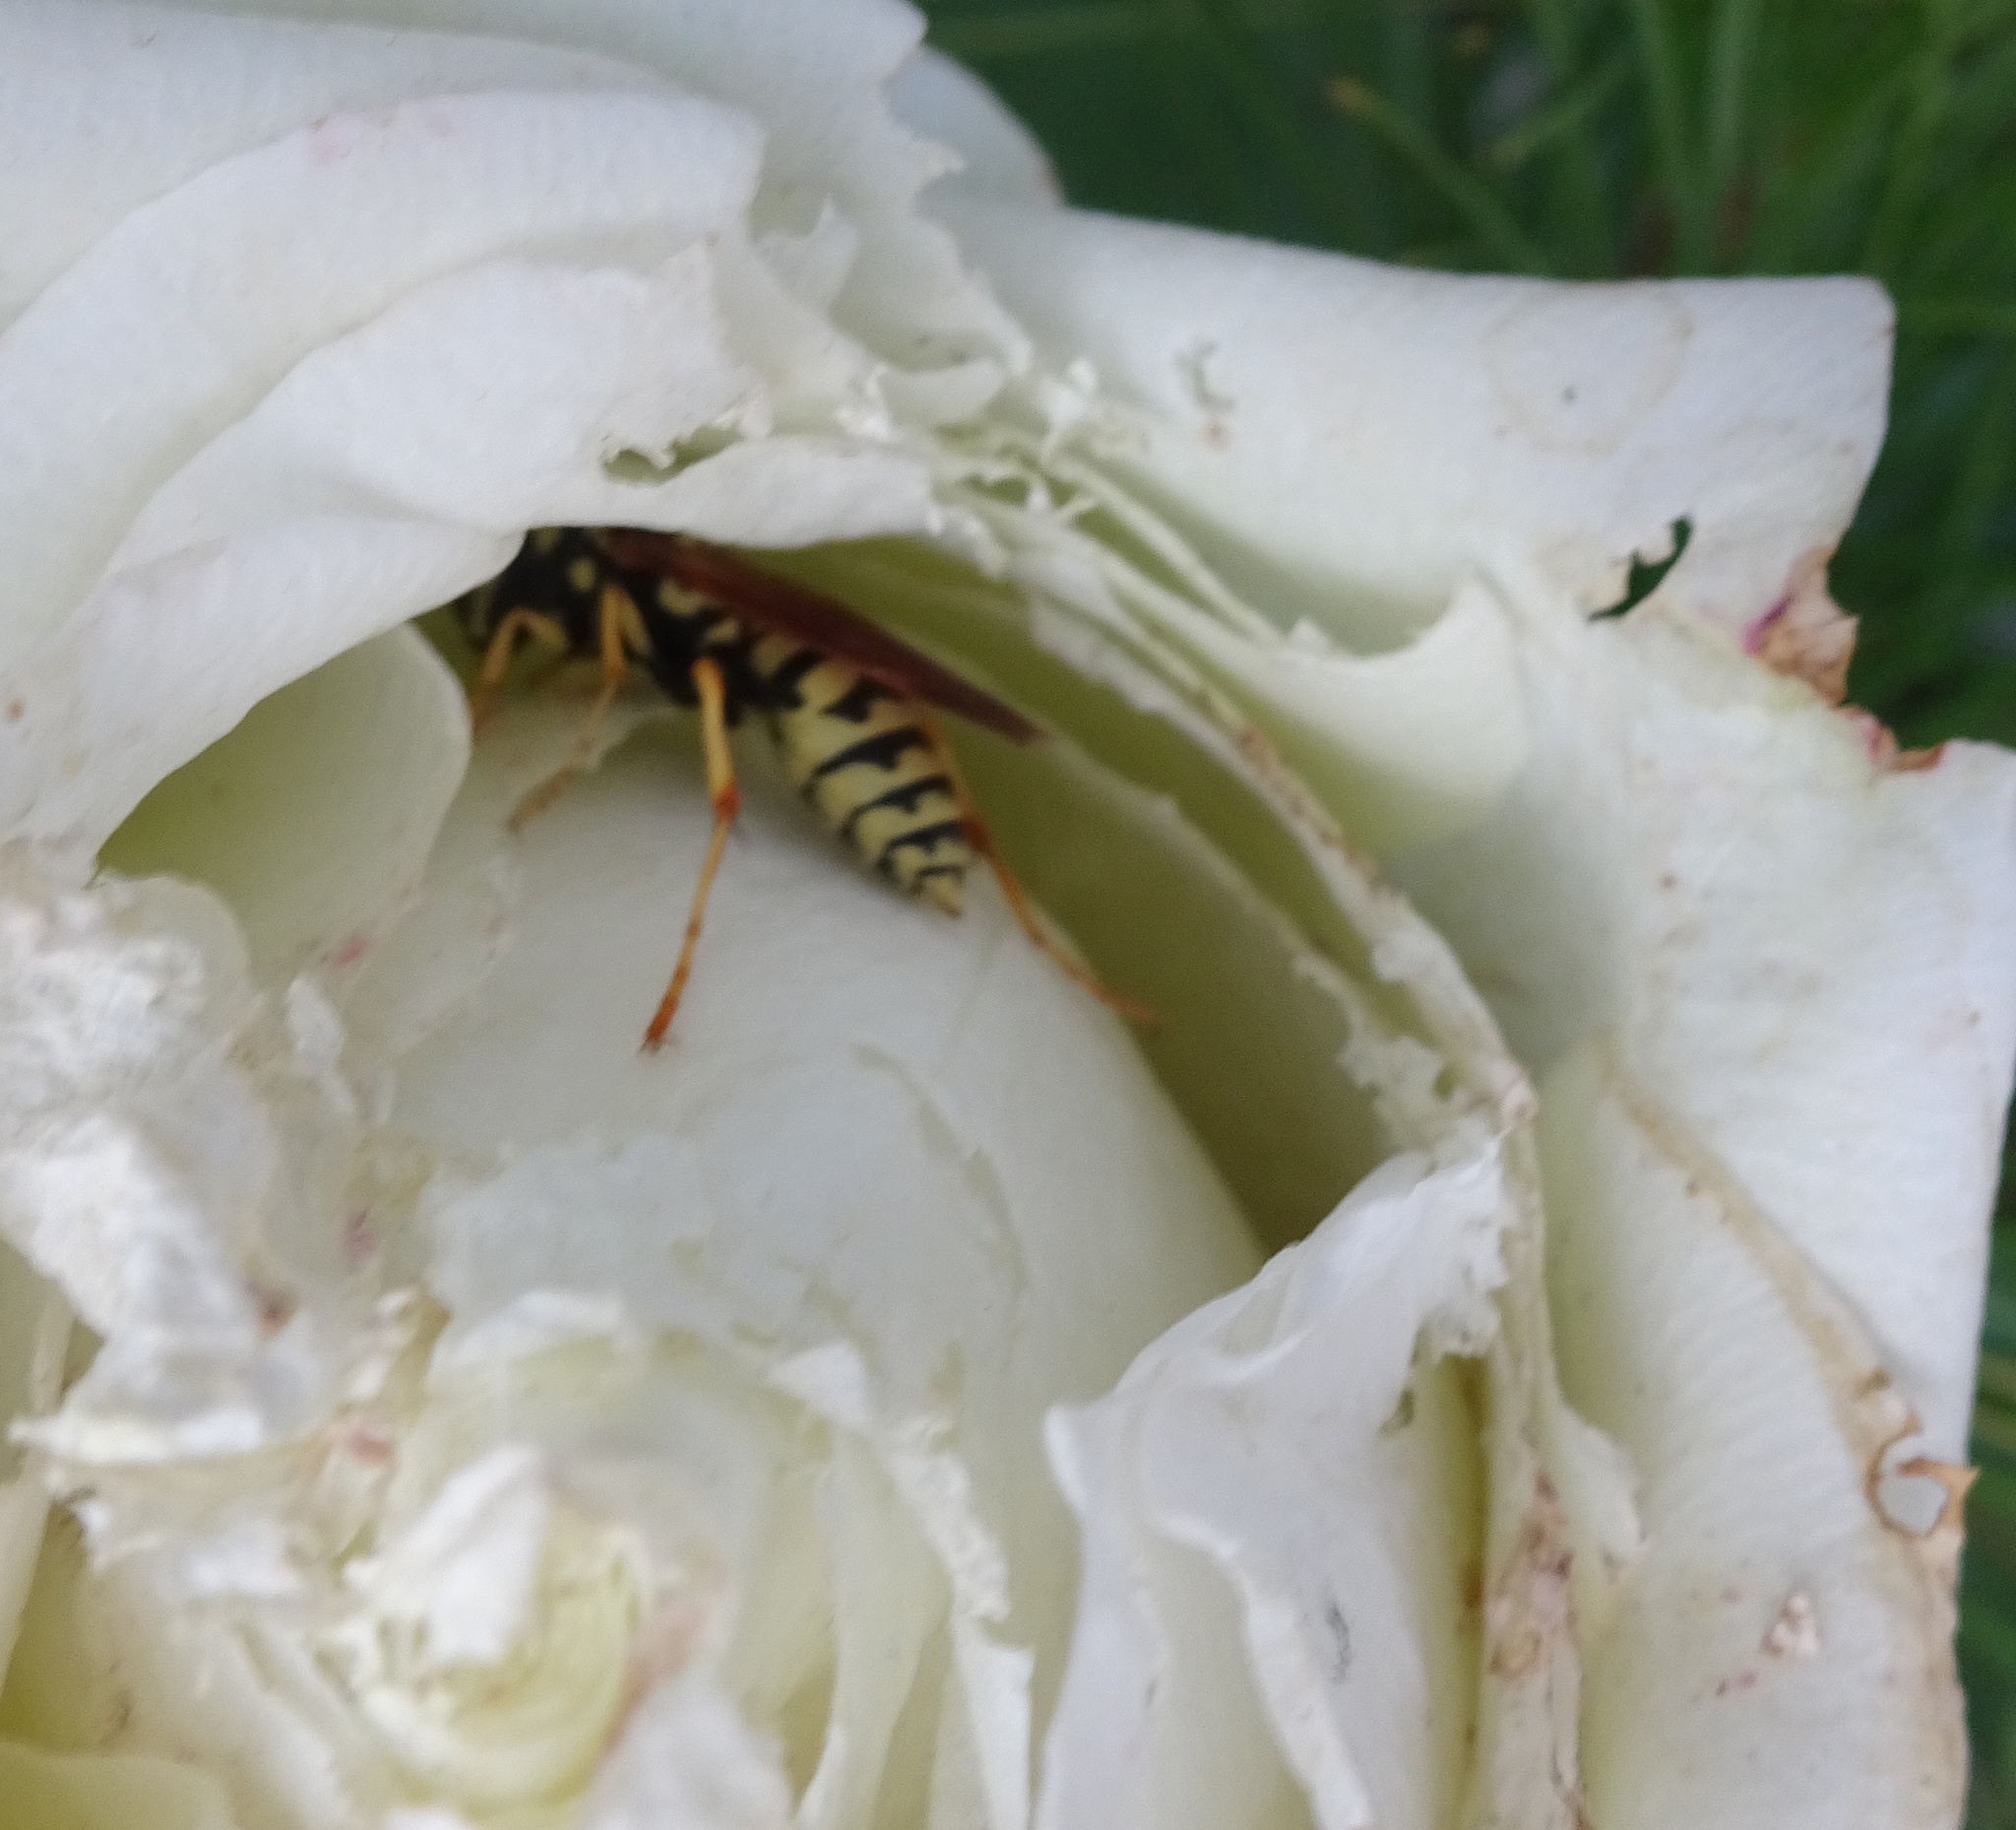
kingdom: Animalia
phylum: Arthropoda
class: Insecta
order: Hymenoptera
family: Eumenidae
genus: Polistes
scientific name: Polistes gallicus
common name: Paper wasp
